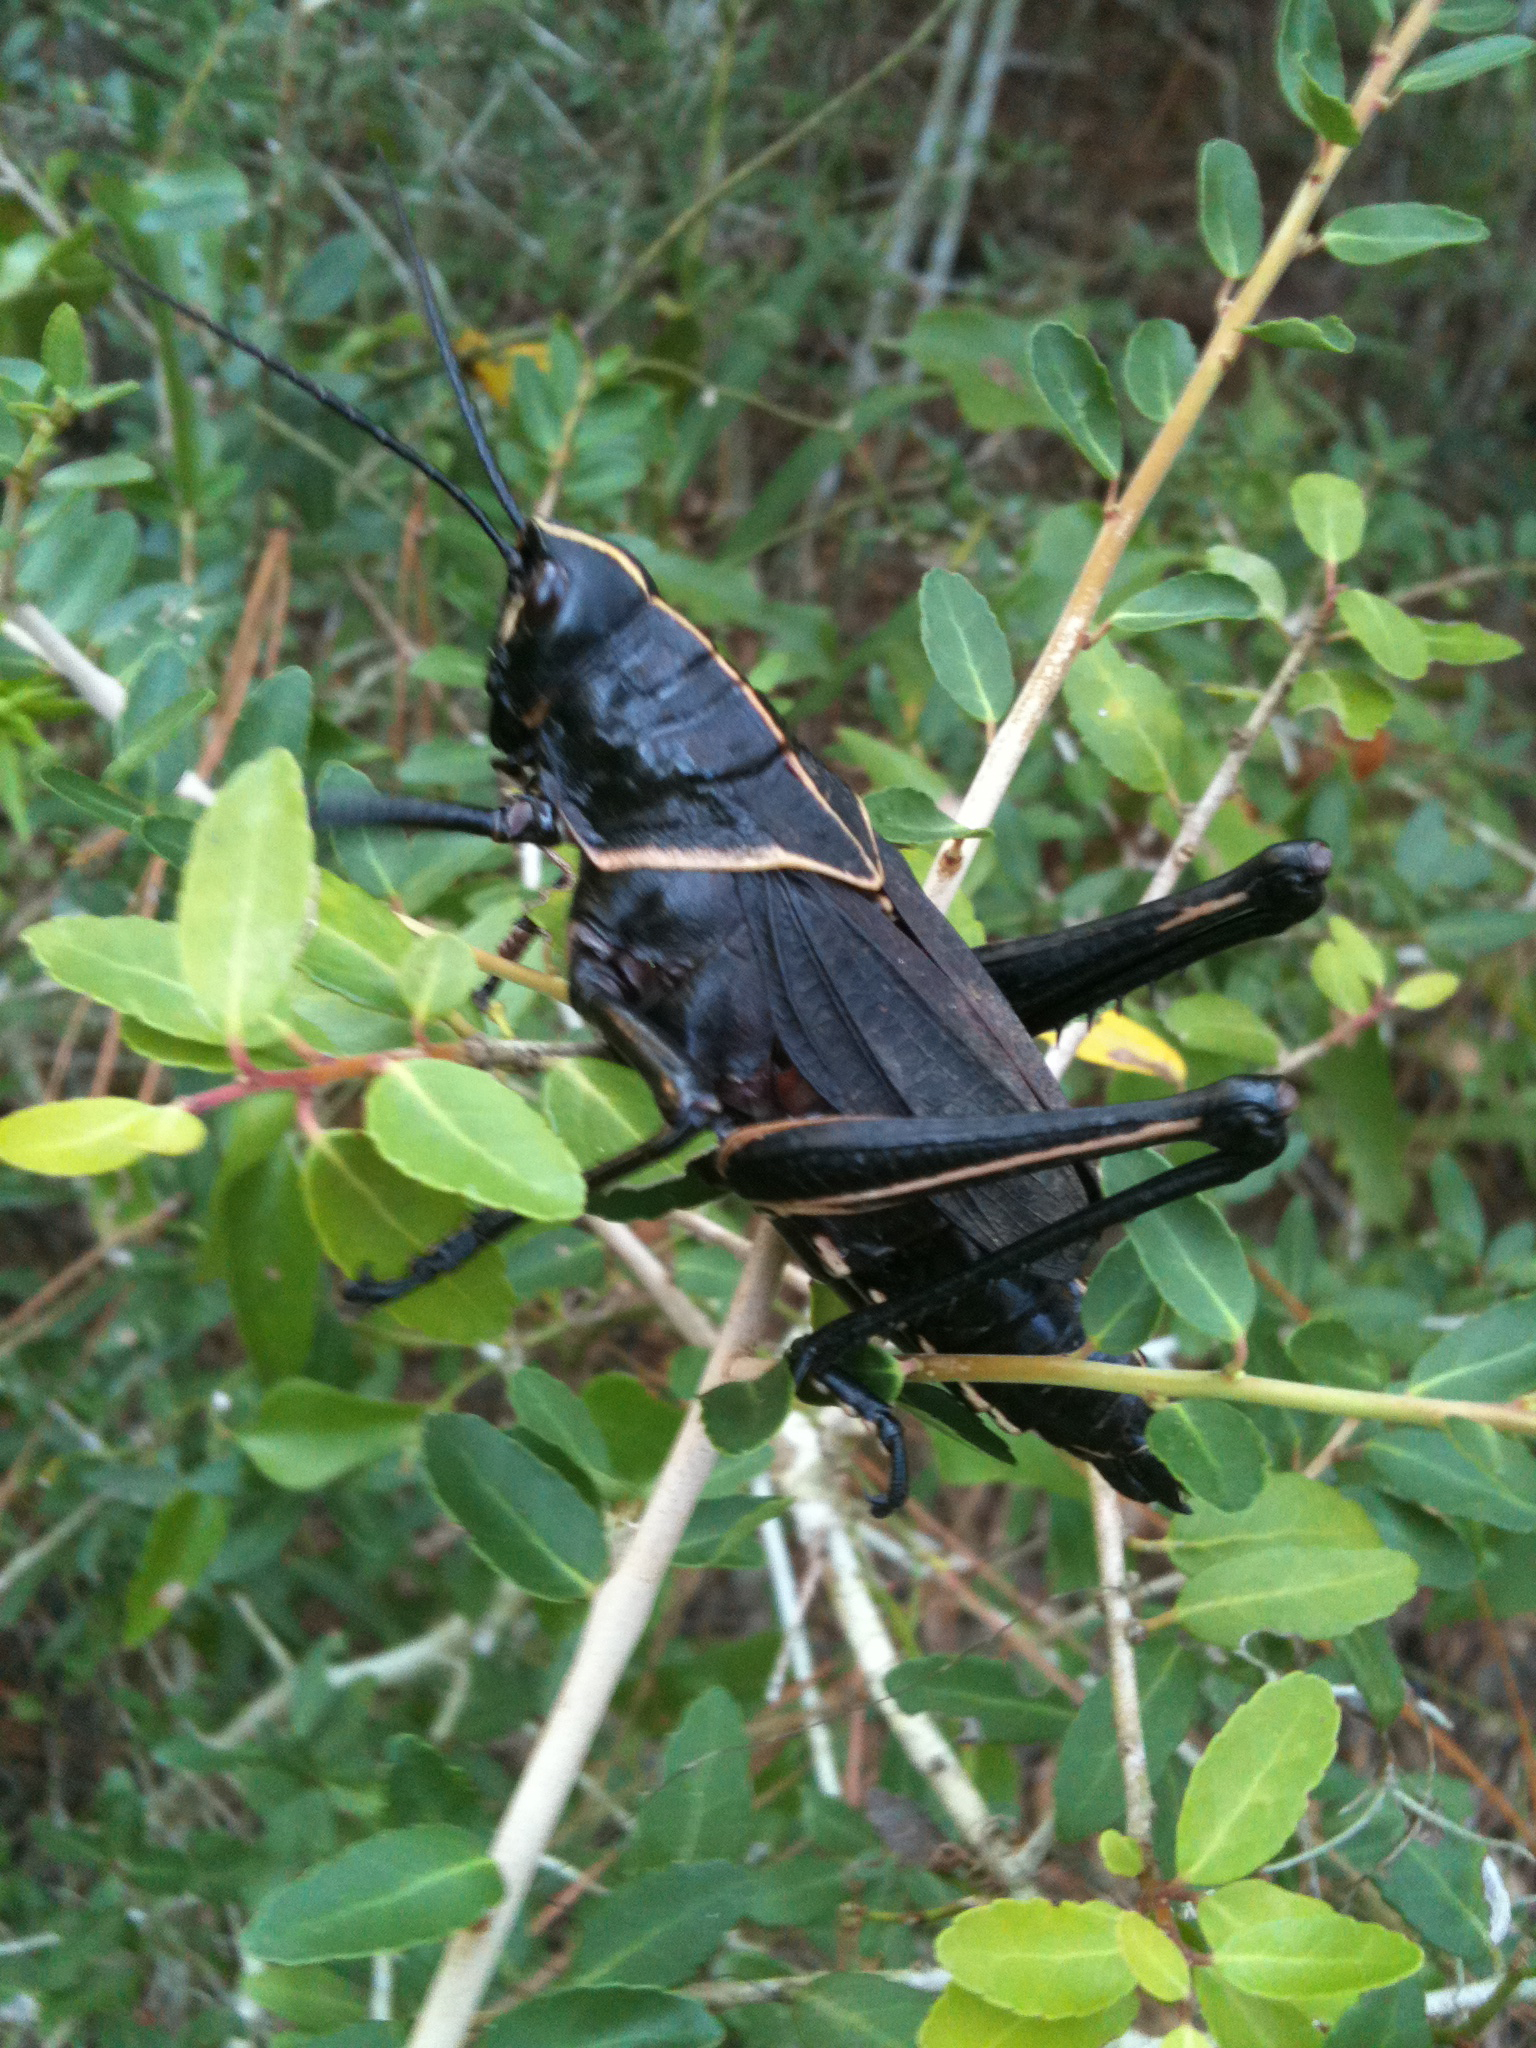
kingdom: Animalia
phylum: Arthropoda
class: Insecta
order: Orthoptera
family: Romaleidae
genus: Romalea
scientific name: Romalea microptera
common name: Eastern lubber grasshopper
